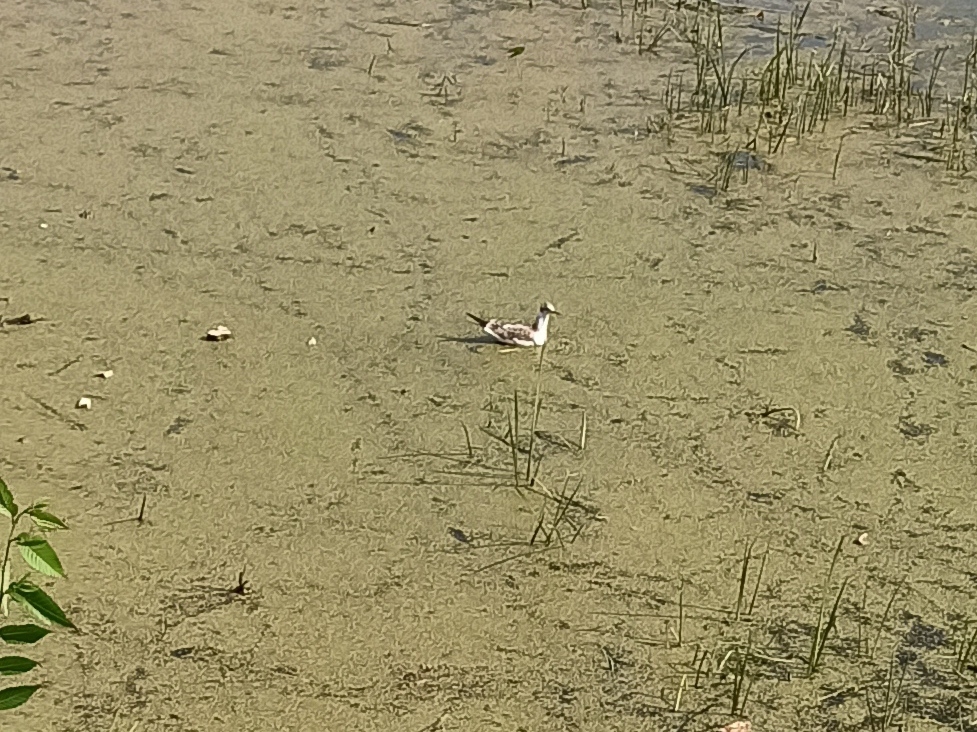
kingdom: Animalia
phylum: Chordata
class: Aves
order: Charadriiformes
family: Laridae
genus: Chroicocephalus
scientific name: Chroicocephalus ridibundus
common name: Black-headed gull
